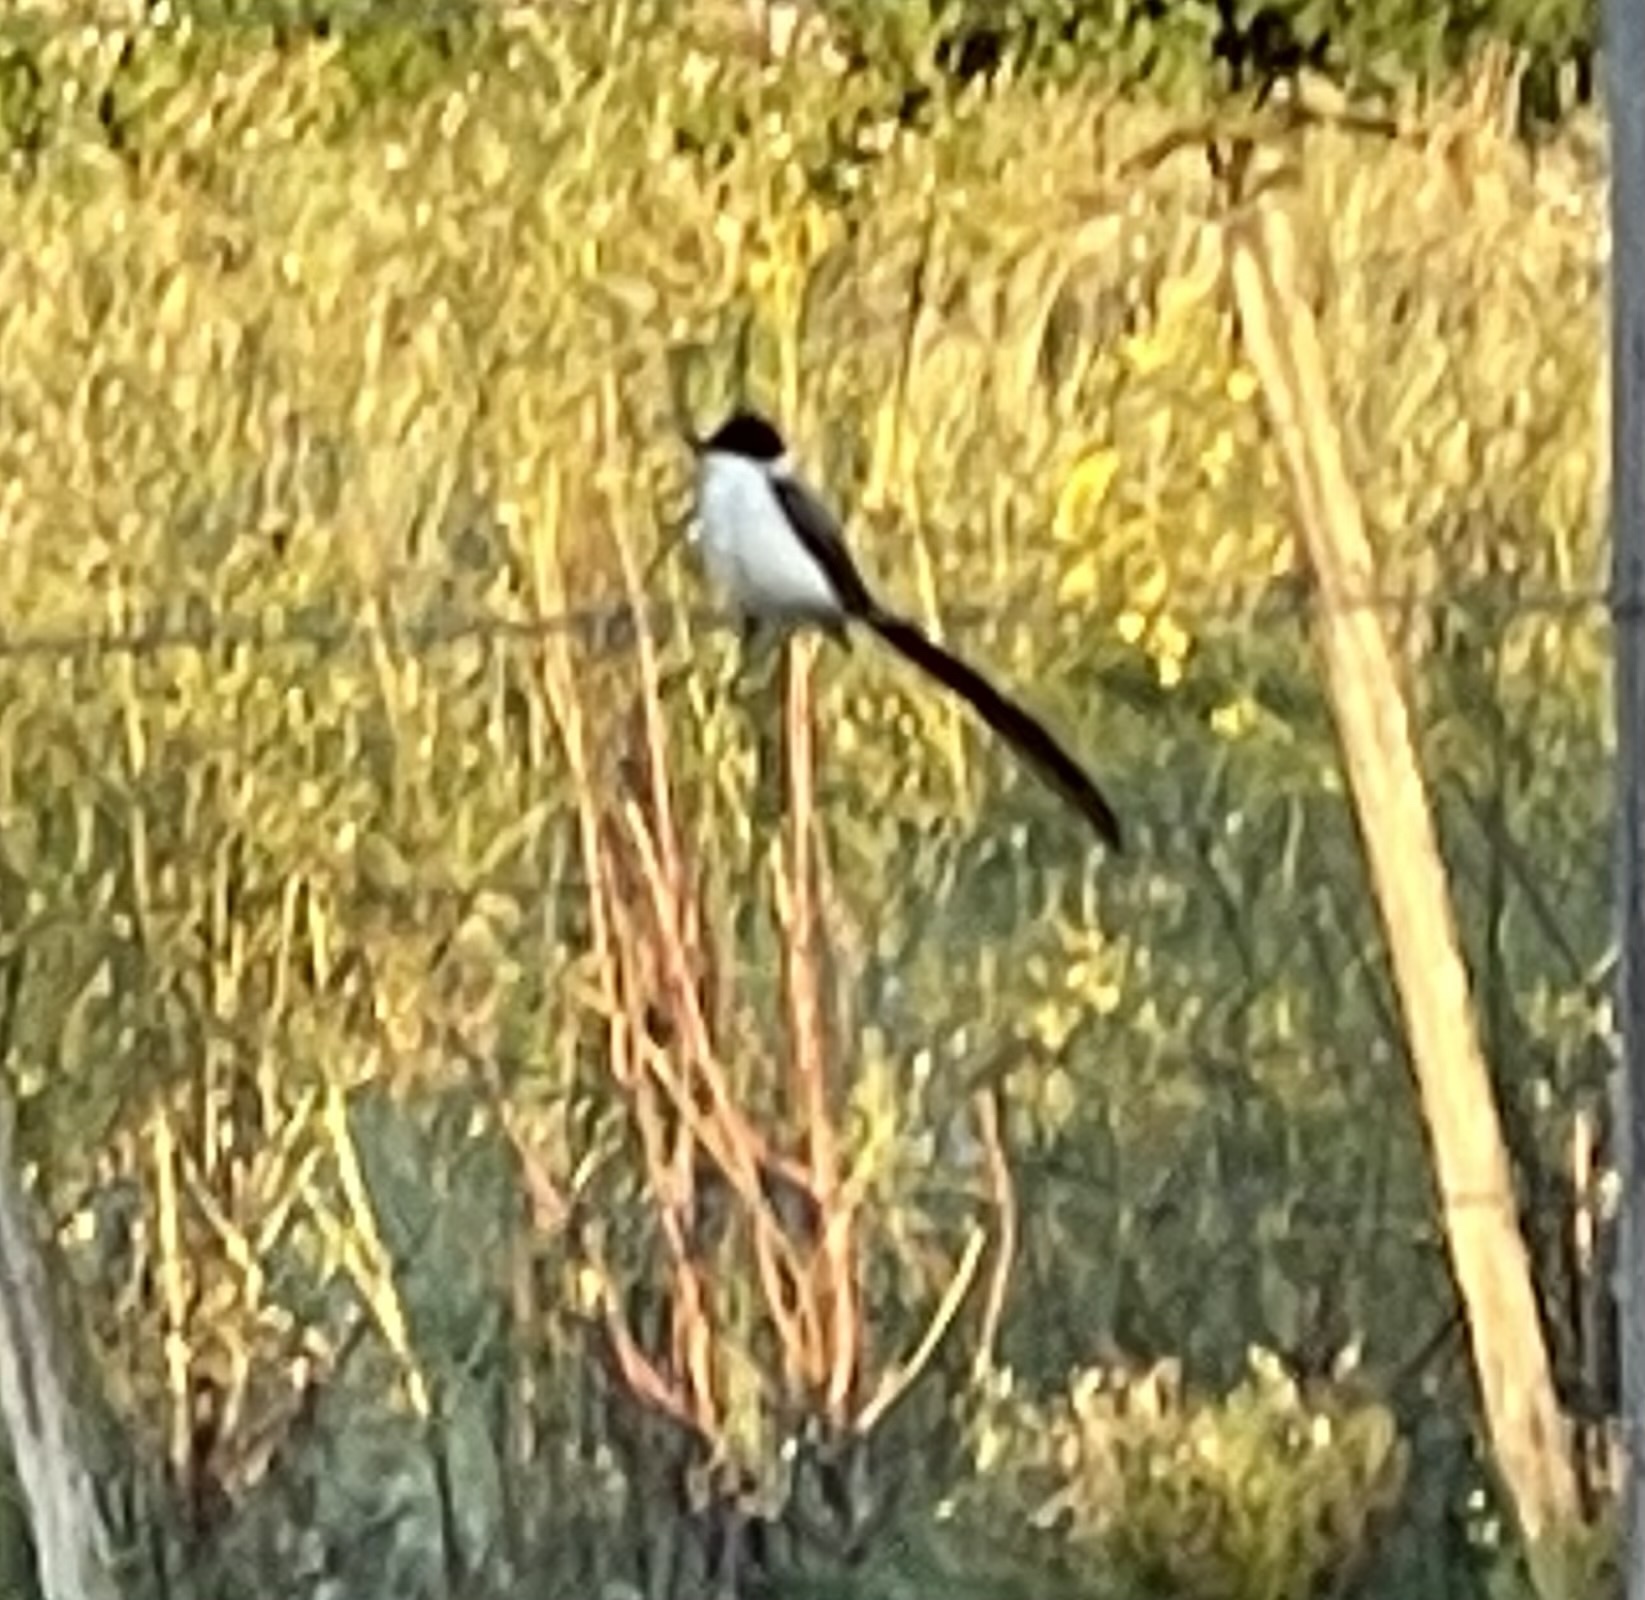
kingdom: Animalia
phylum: Chordata
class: Aves
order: Passeriformes
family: Tyrannidae
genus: Tyrannus
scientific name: Tyrannus savana
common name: Fork-tailed flycatcher
